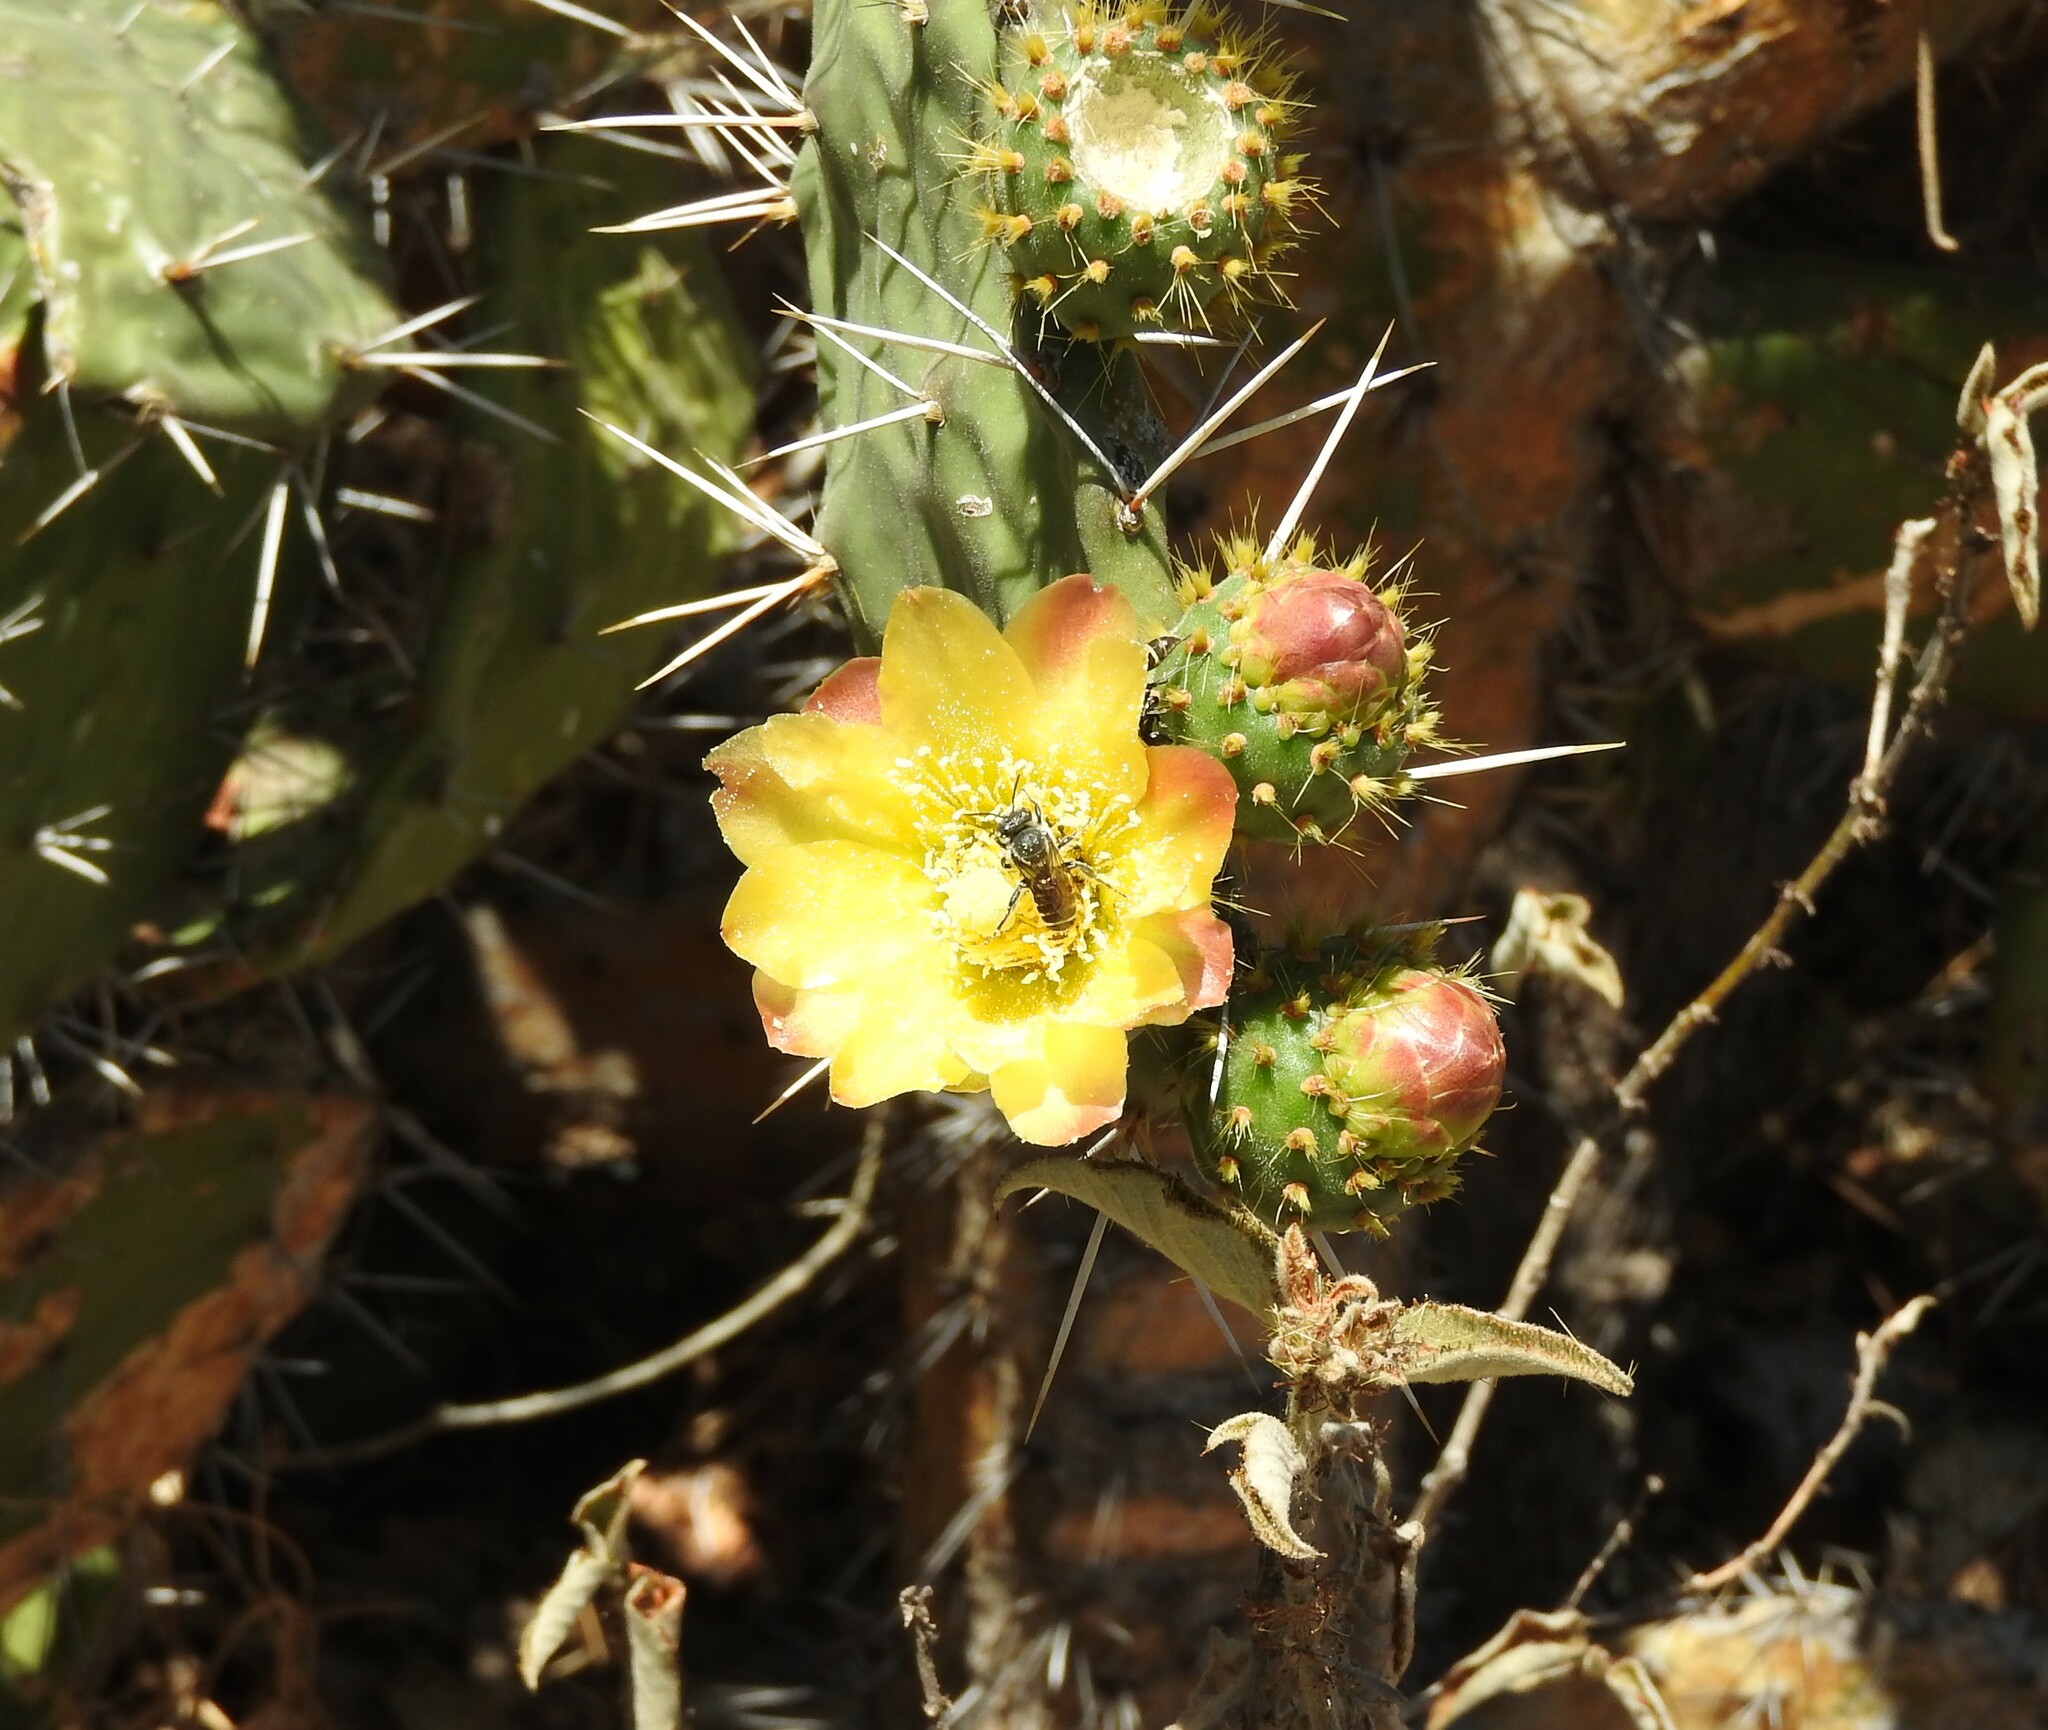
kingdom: Plantae
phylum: Tracheophyta
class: Magnoliopsida
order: Caryophyllales
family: Cactaceae
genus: Opuntia
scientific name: Opuntia tomentosa
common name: Woollyjoint pricklypear
